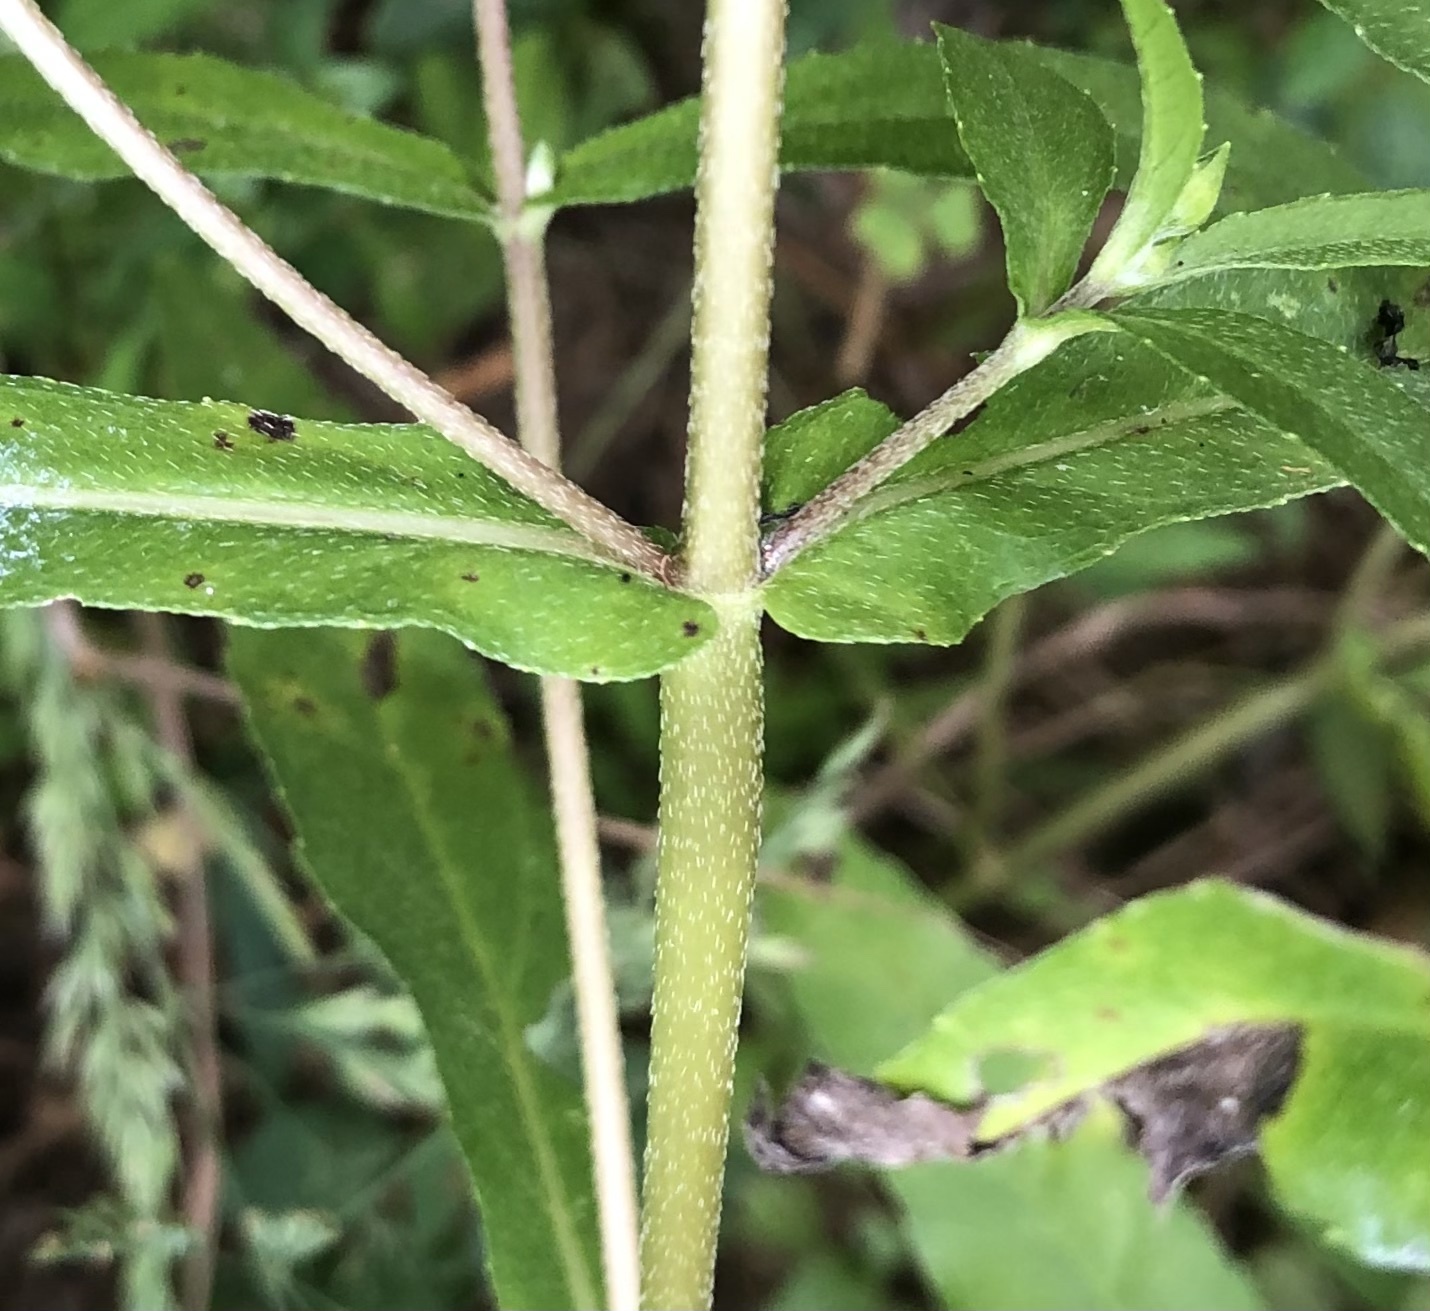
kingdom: Plantae
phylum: Tracheophyta
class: Magnoliopsida
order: Asterales
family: Asteraceae
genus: Eclipta
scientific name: Eclipta prostrata
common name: False daisy
